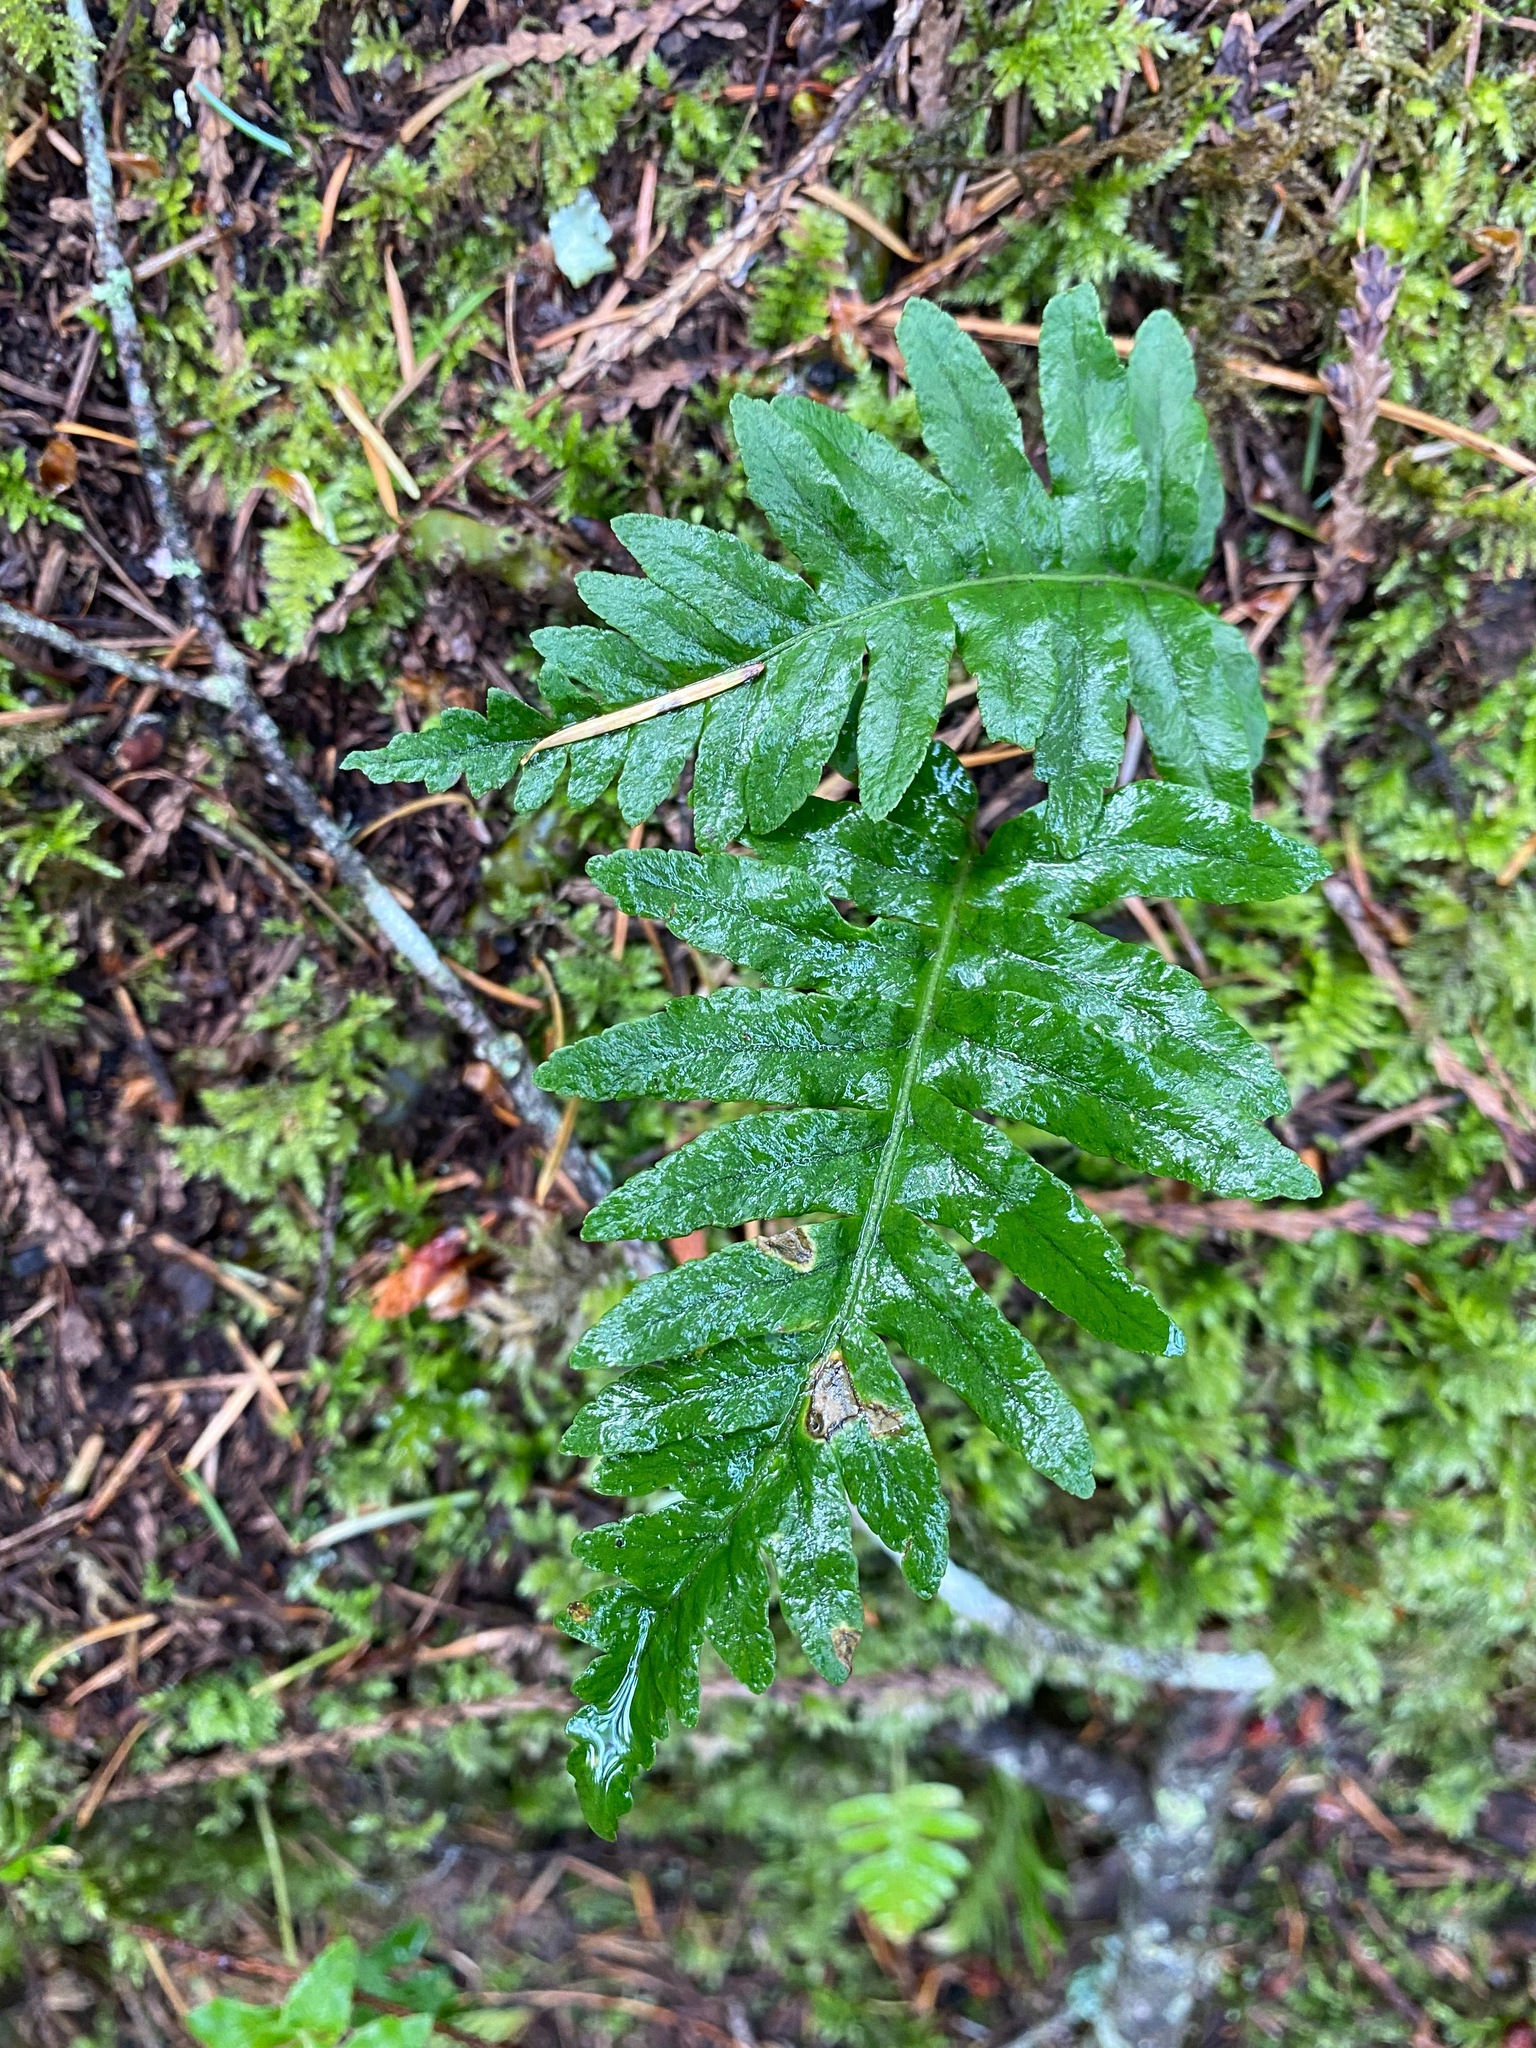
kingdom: Plantae
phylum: Tracheophyta
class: Polypodiopsida
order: Polypodiales
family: Polypodiaceae
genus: Polypodium
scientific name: Polypodium glycyrrhiza
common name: Licorice fern
